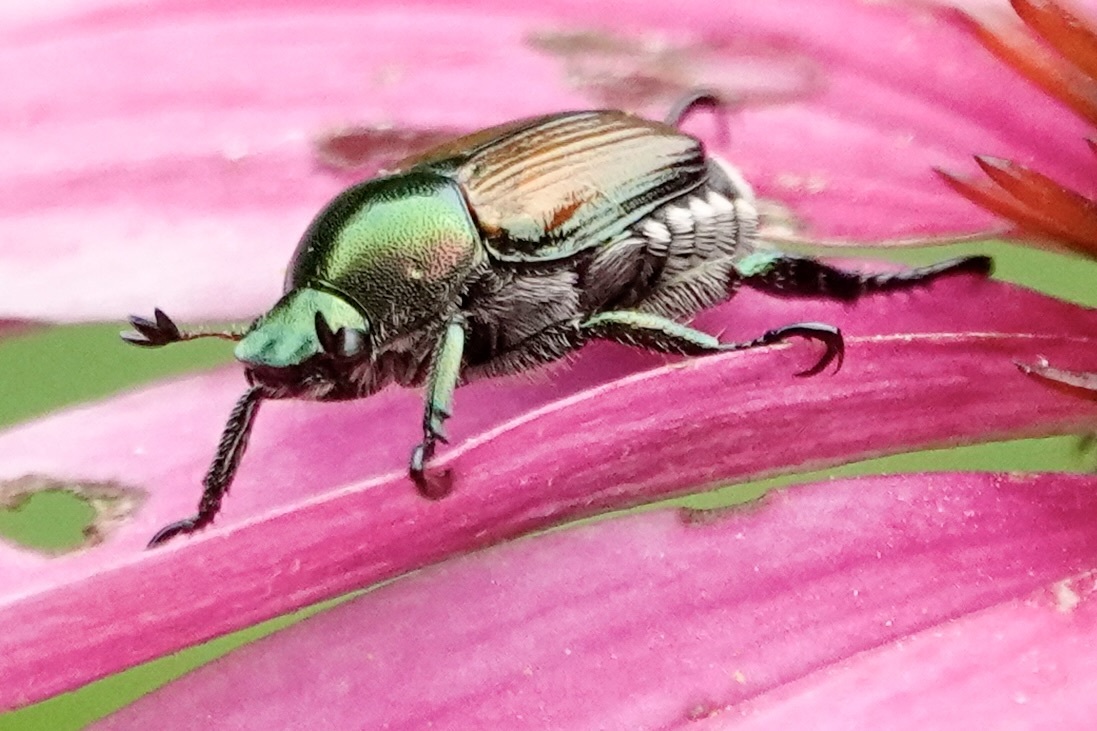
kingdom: Animalia
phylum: Arthropoda
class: Insecta
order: Coleoptera
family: Scarabaeidae
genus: Popillia
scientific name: Popillia japonica
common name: Japanese beetle
